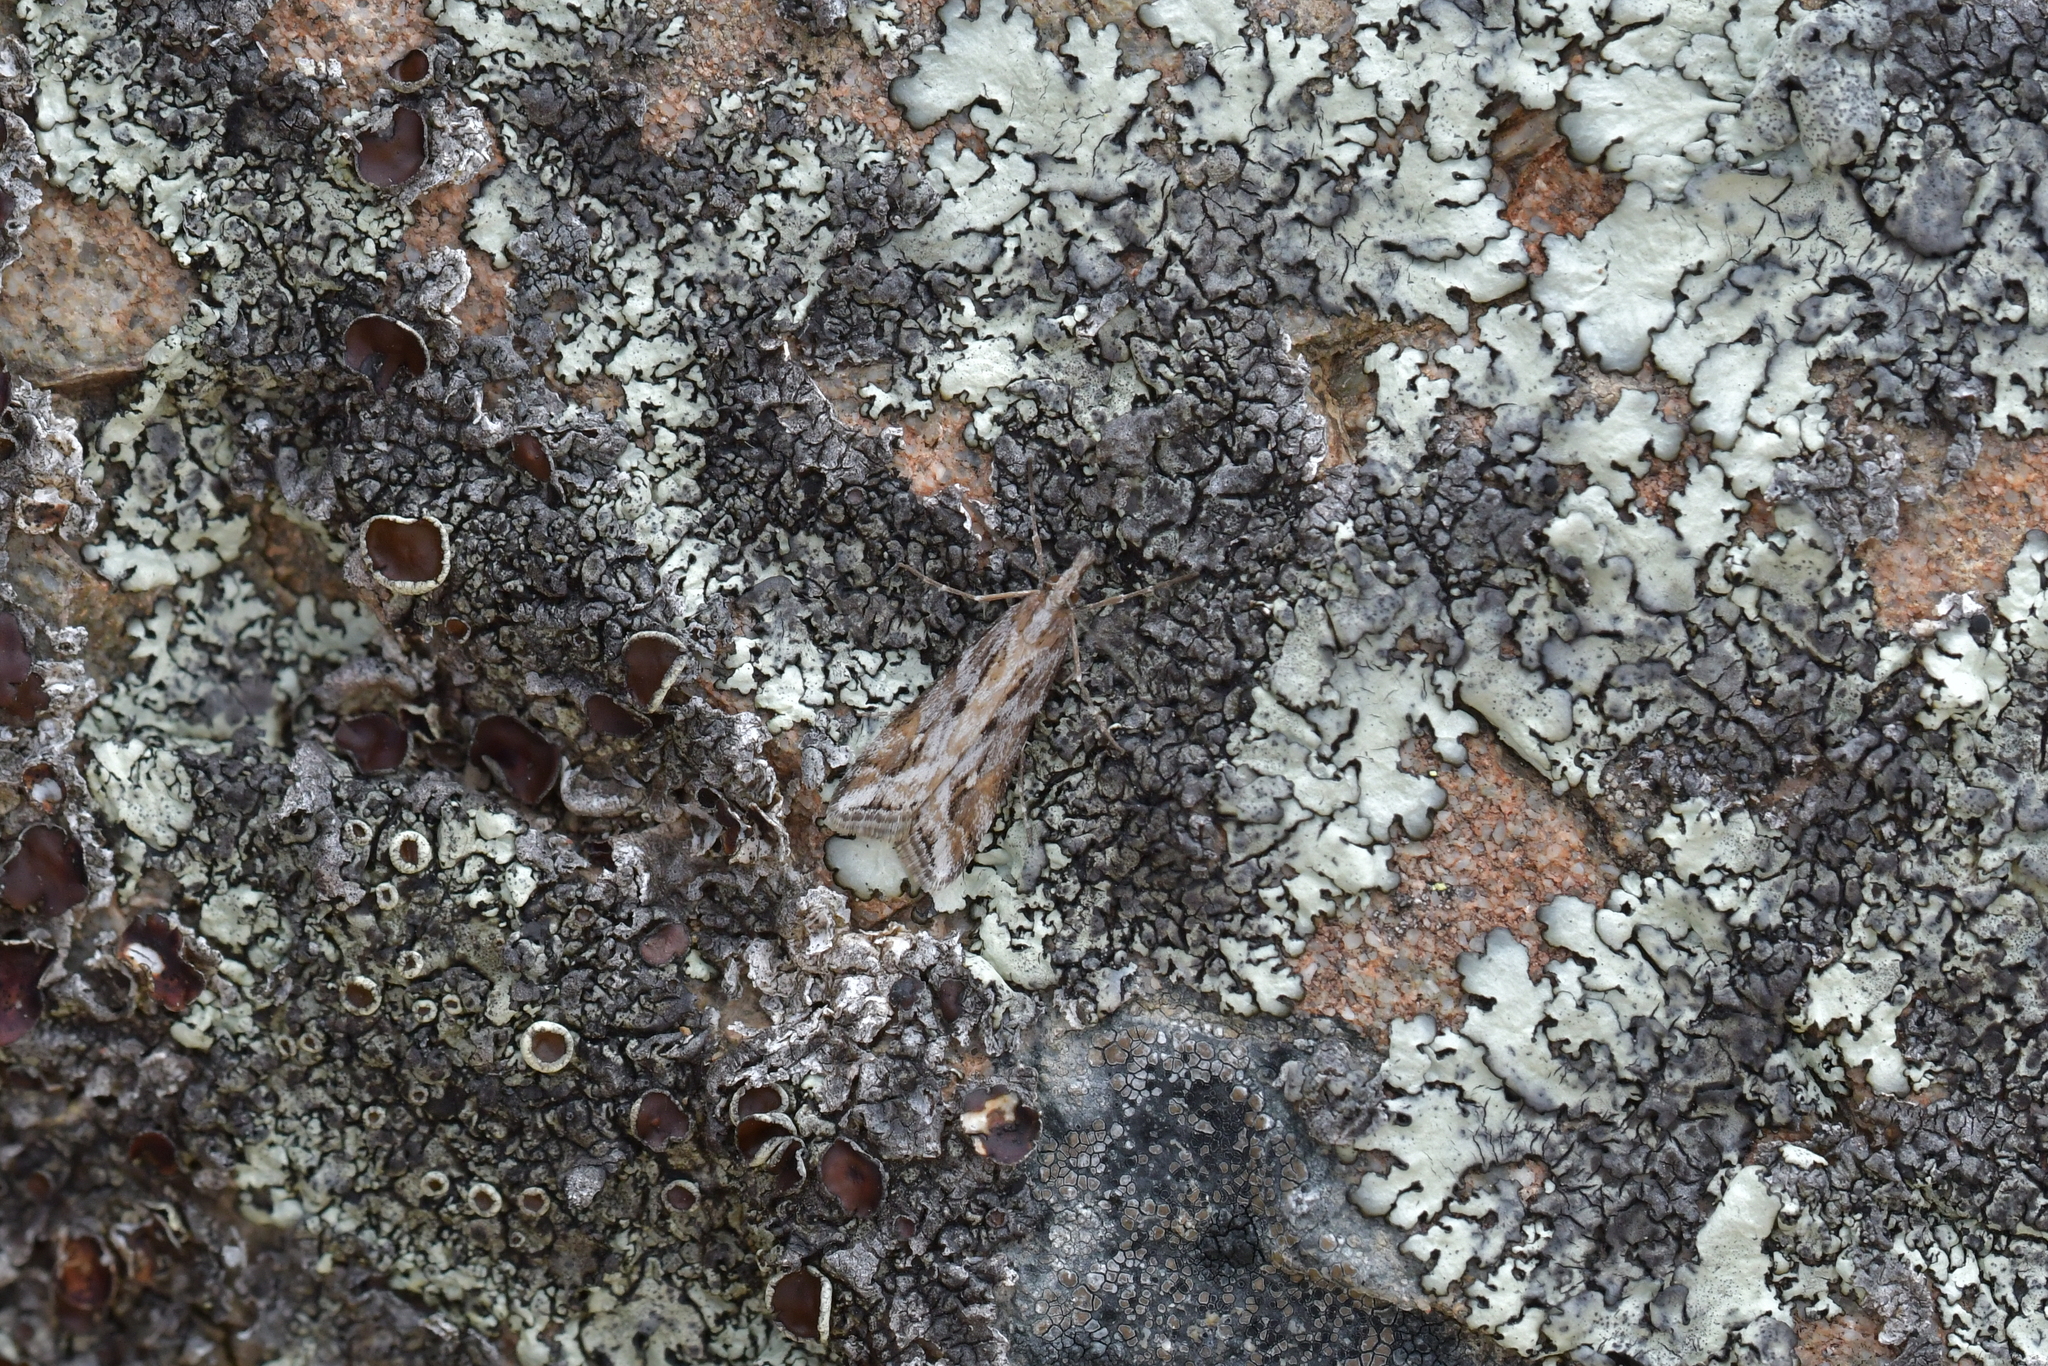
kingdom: Animalia
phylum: Arthropoda
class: Insecta
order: Lepidoptera
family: Crambidae
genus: Scoparia
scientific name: Scoparia exilis
